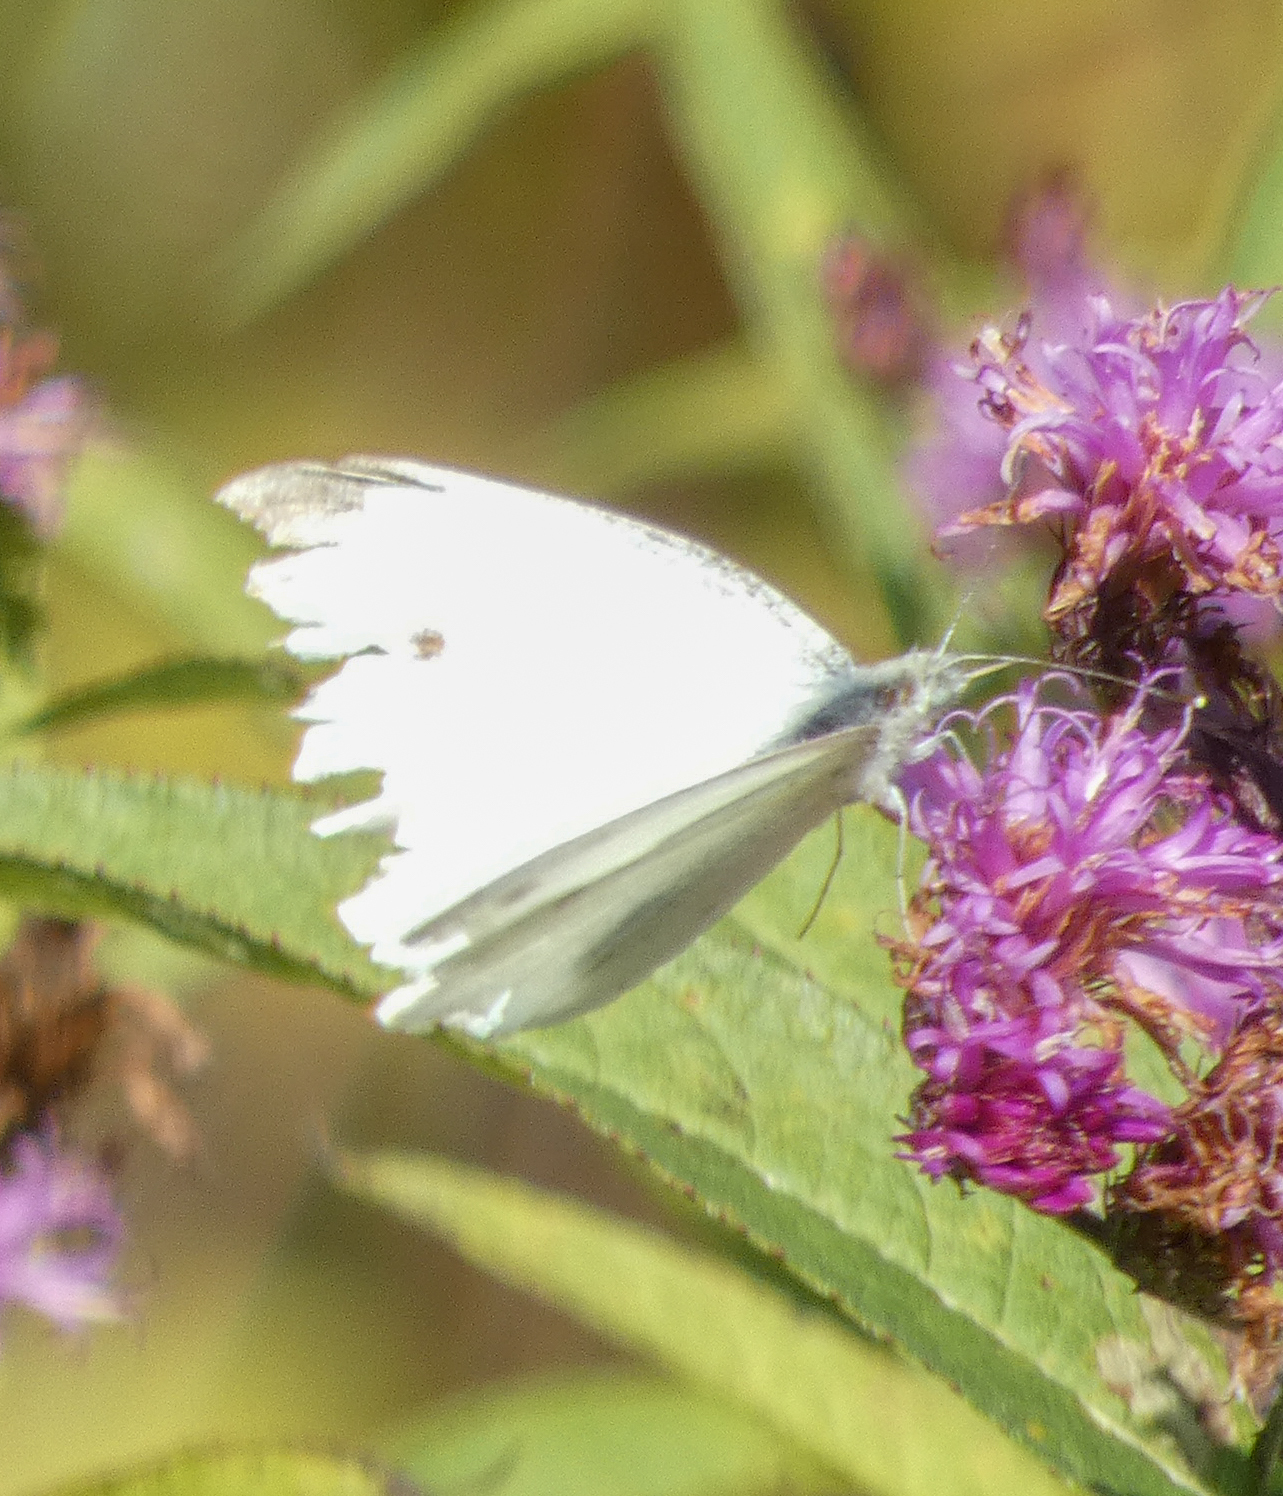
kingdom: Animalia
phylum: Arthropoda
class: Insecta
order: Lepidoptera
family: Pieridae
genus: Pieris
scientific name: Pieris rapae
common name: Small white
